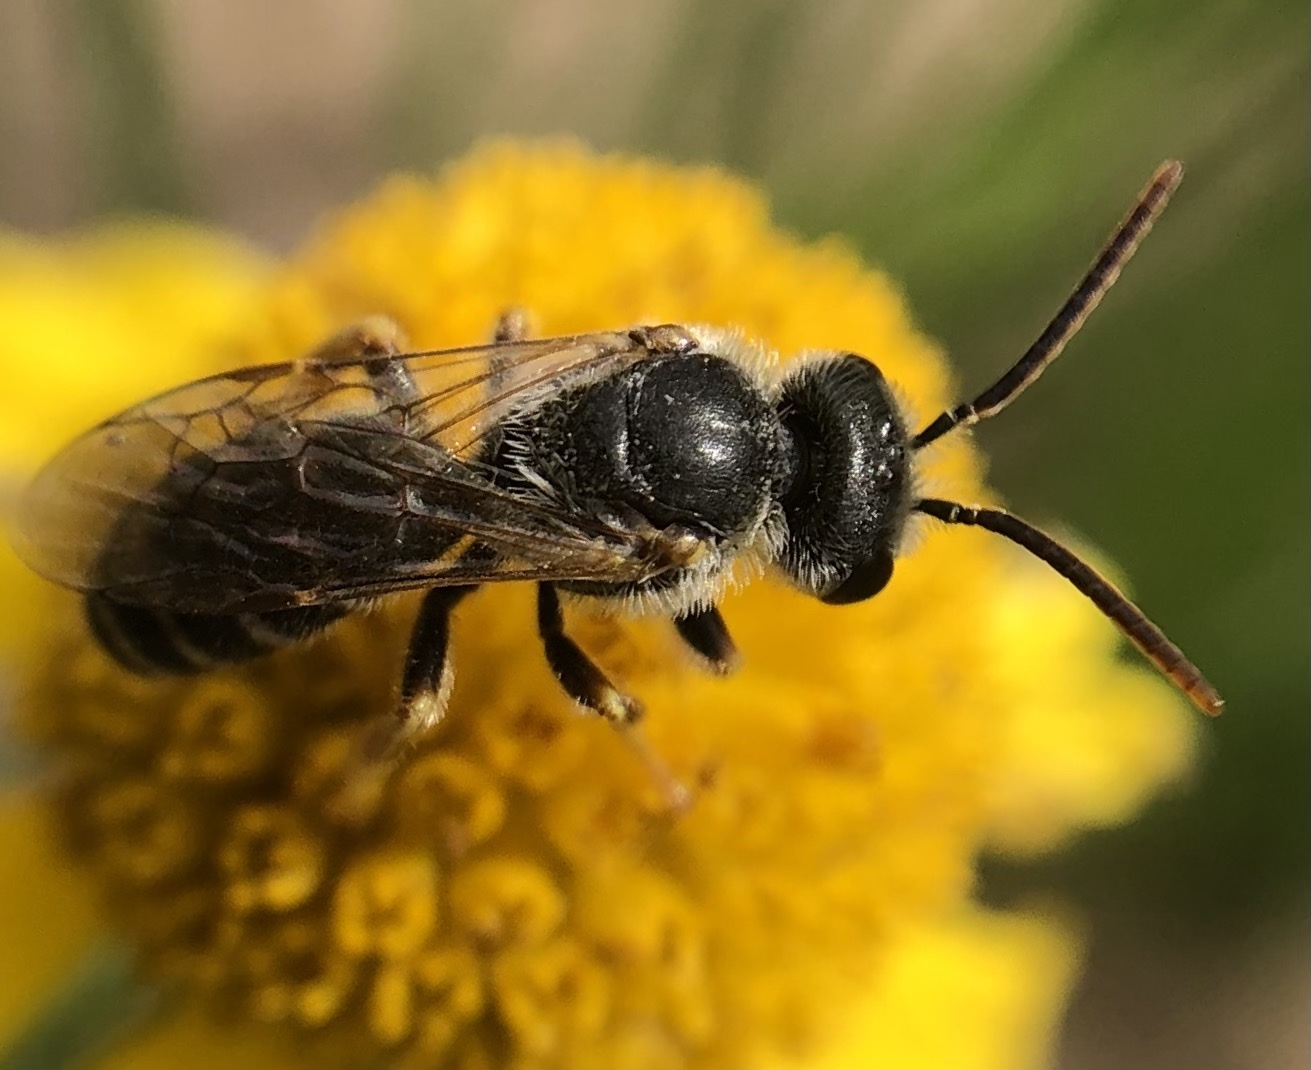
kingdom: Animalia
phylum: Arthropoda
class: Insecta
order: Hymenoptera
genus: Odontalictus
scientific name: Odontalictus
